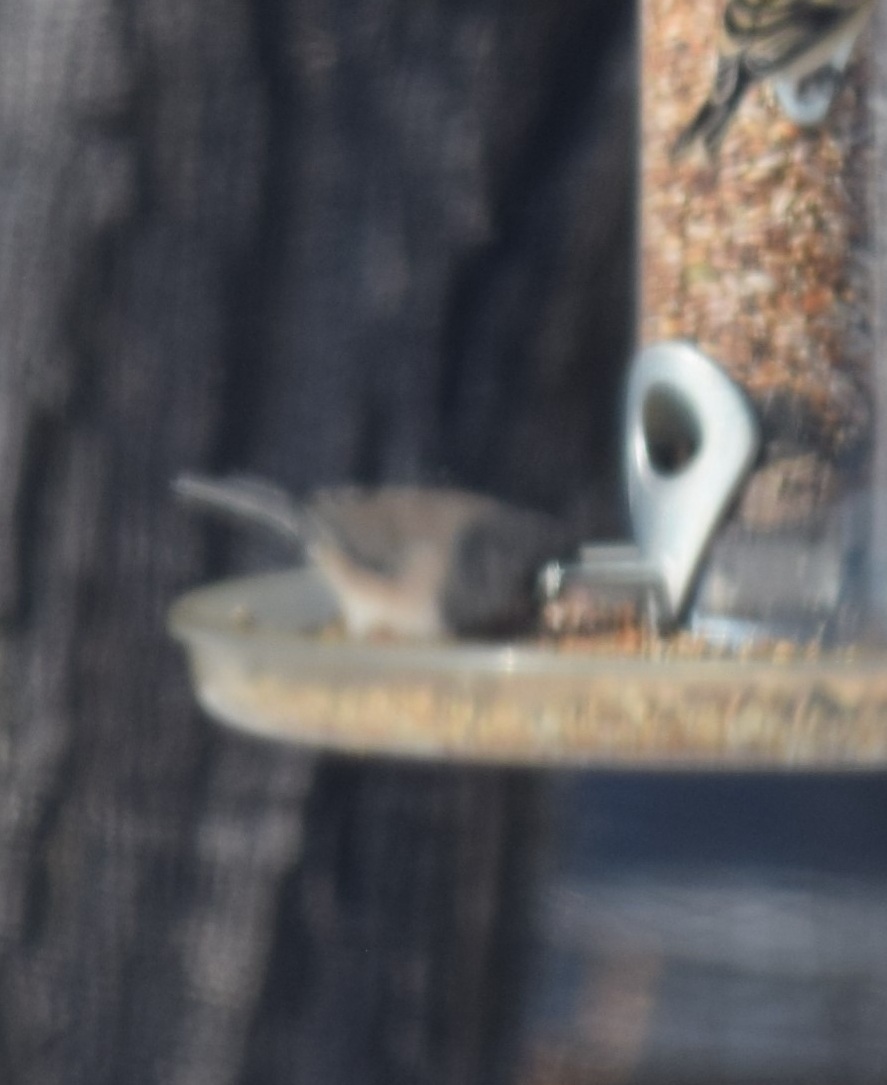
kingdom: Animalia
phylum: Chordata
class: Aves
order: Passeriformes
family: Passerellidae
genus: Junco
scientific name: Junco hyemalis
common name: Dark-eyed junco
